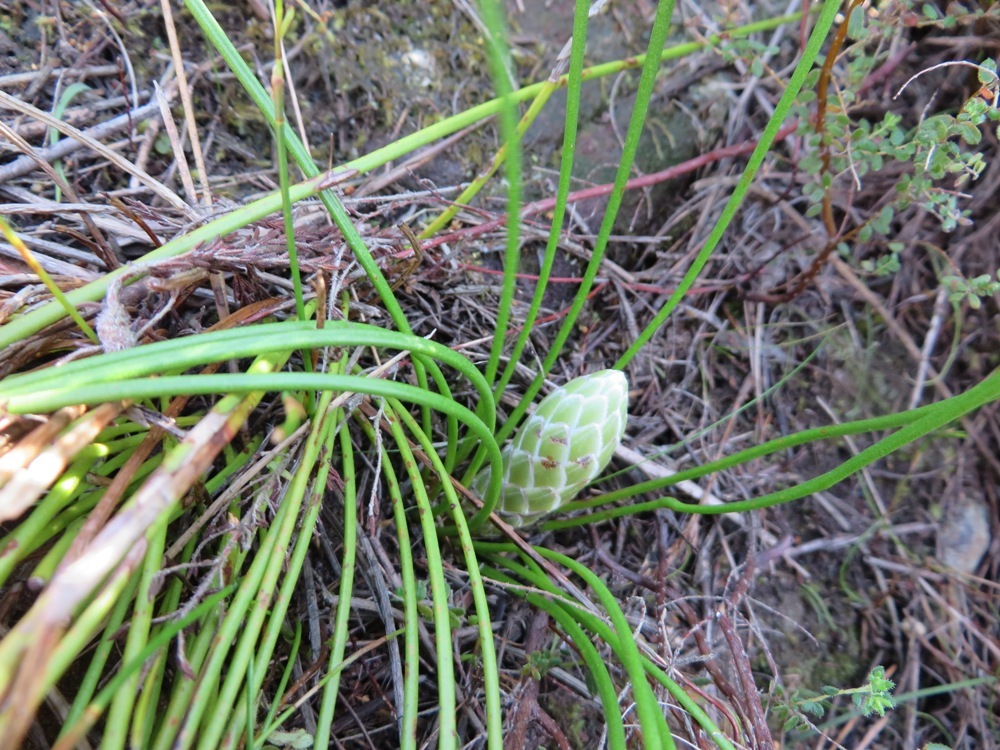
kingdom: Plantae
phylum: Tracheophyta
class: Magnoliopsida
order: Proteales
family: Proteaceae
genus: Protea
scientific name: Protea lorea
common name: Thong-leaf sugarbush
